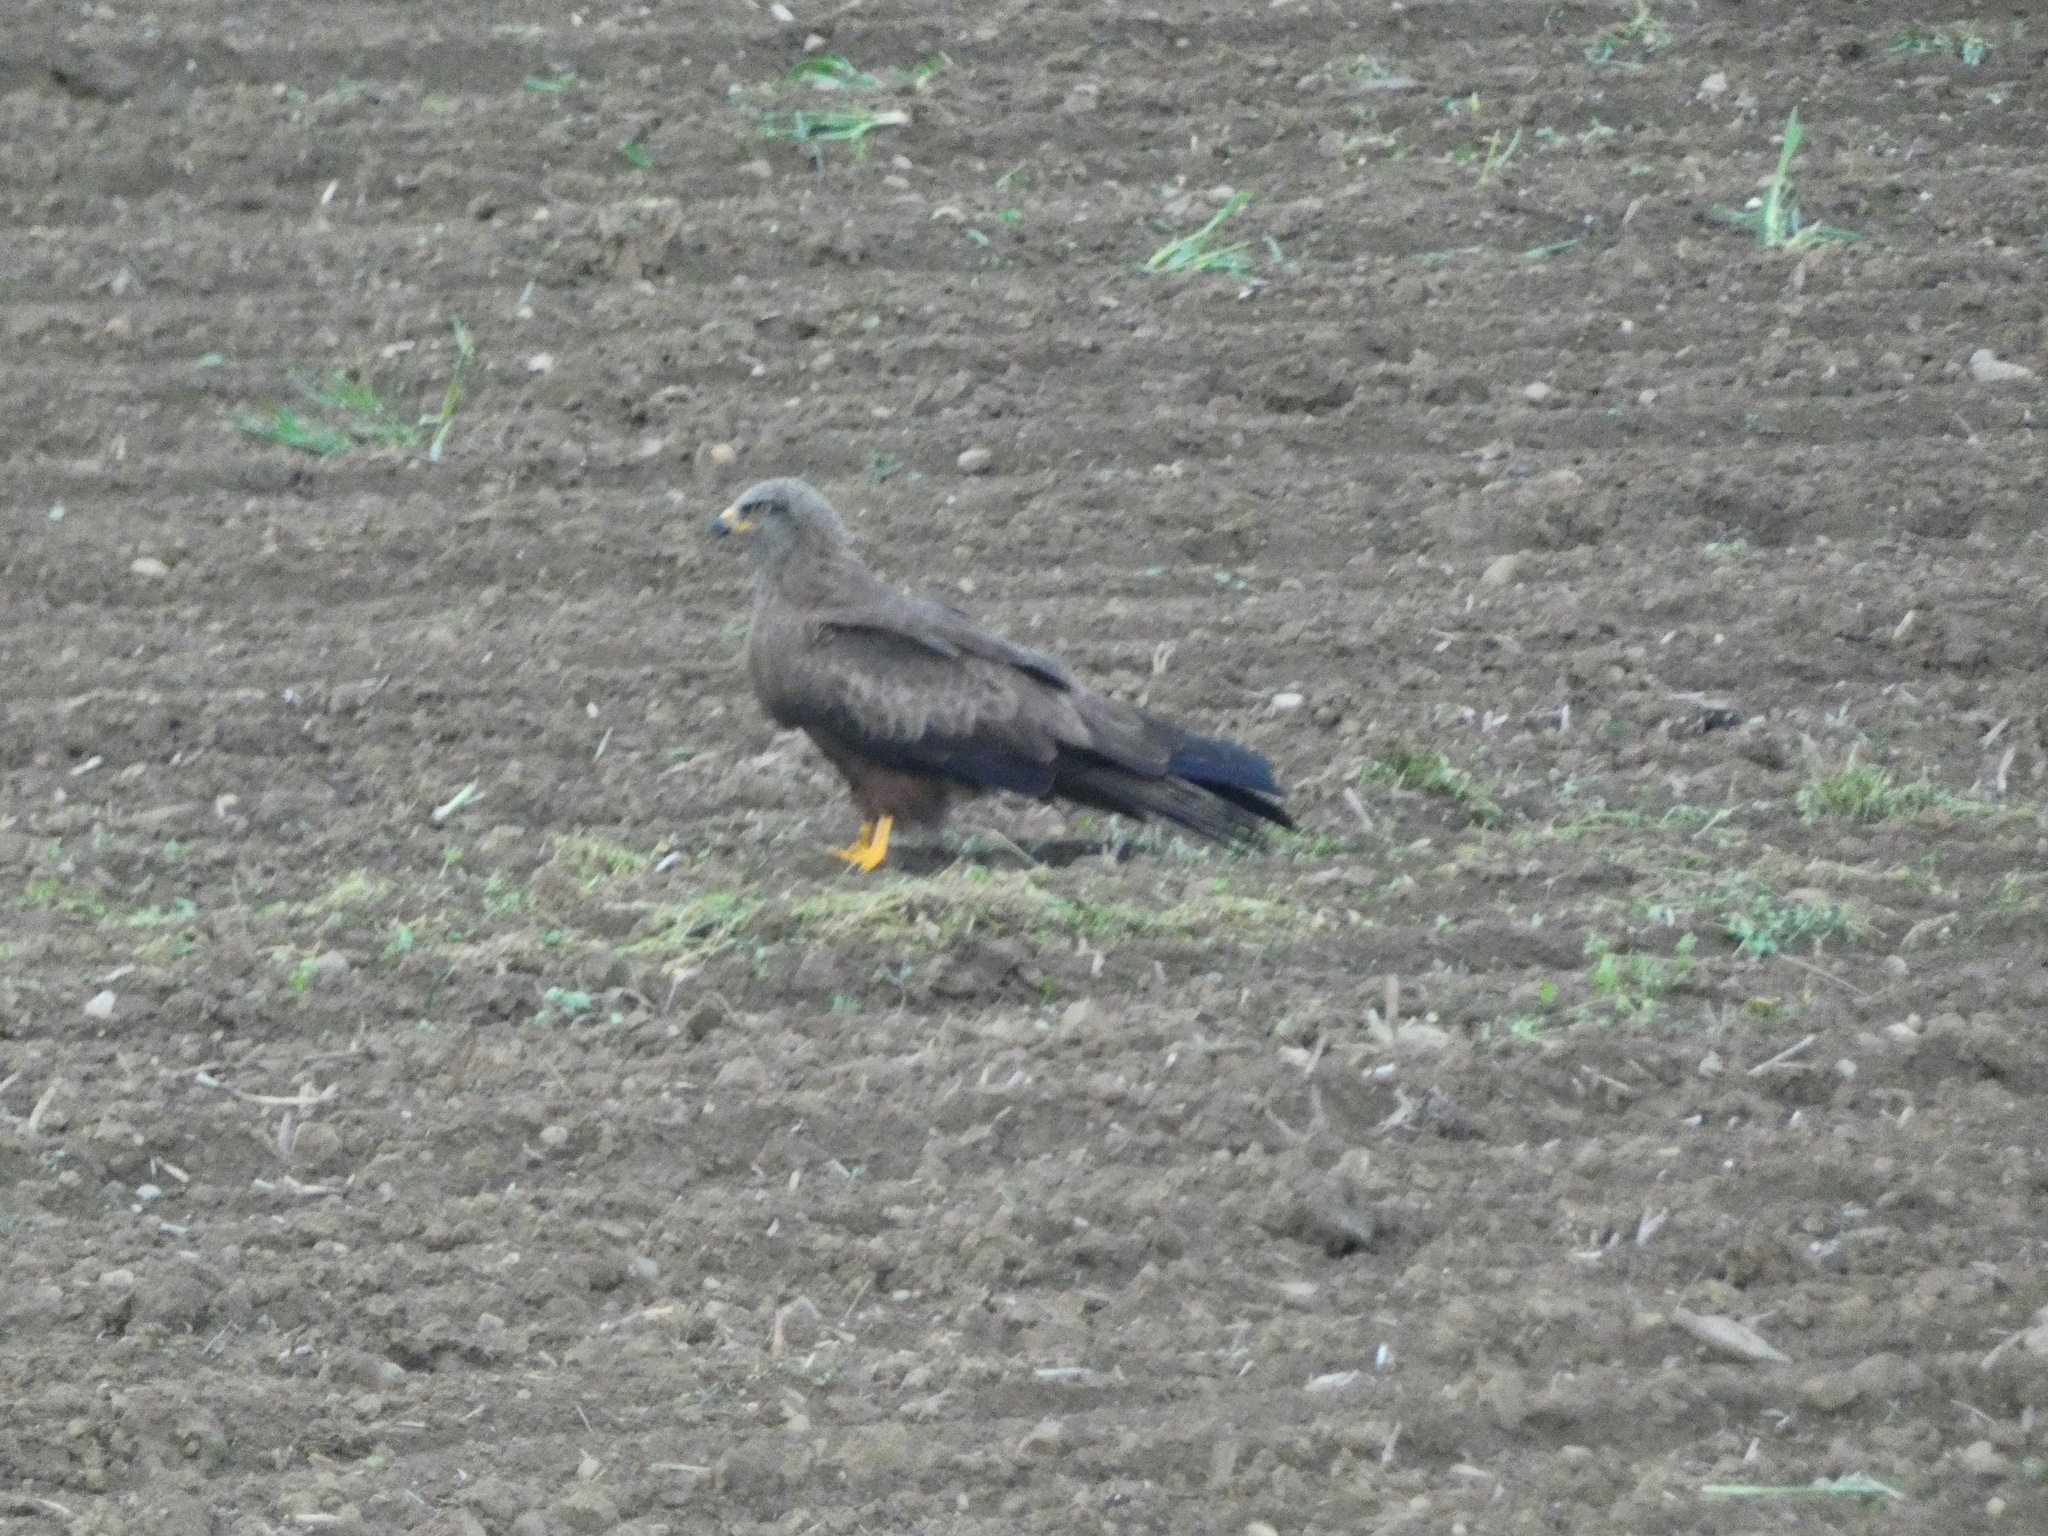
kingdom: Animalia
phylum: Chordata
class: Aves
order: Accipitriformes
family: Accipitridae
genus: Milvus
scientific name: Milvus migrans
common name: Black kite
